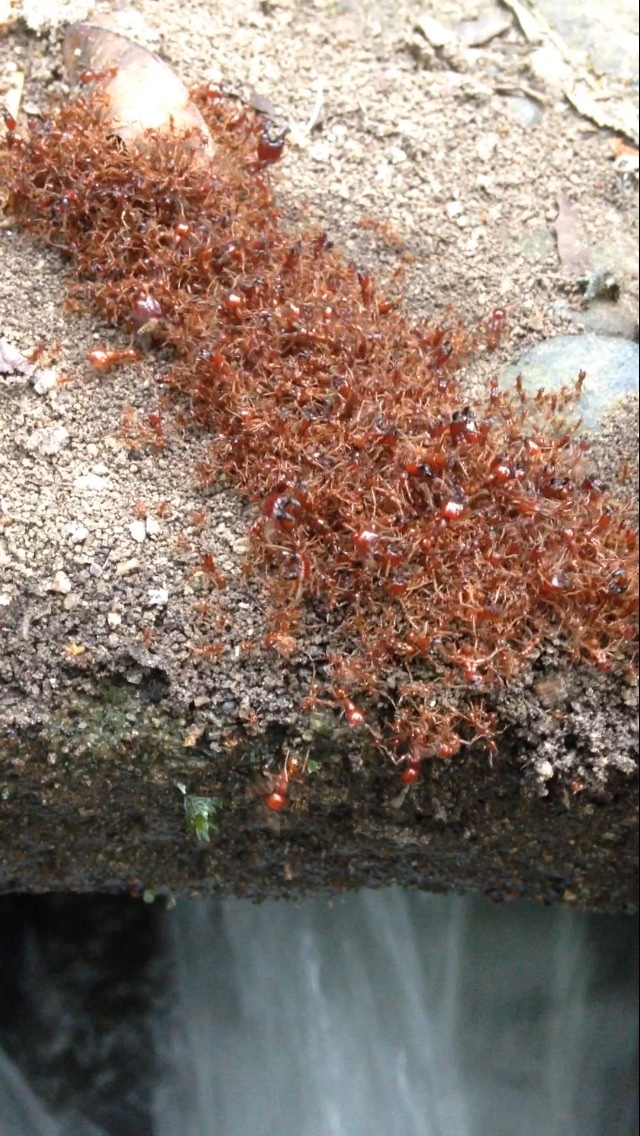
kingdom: Animalia
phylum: Arthropoda
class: Insecta
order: Hymenoptera
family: Formicidae
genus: Labidus
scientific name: Labidus coecus
